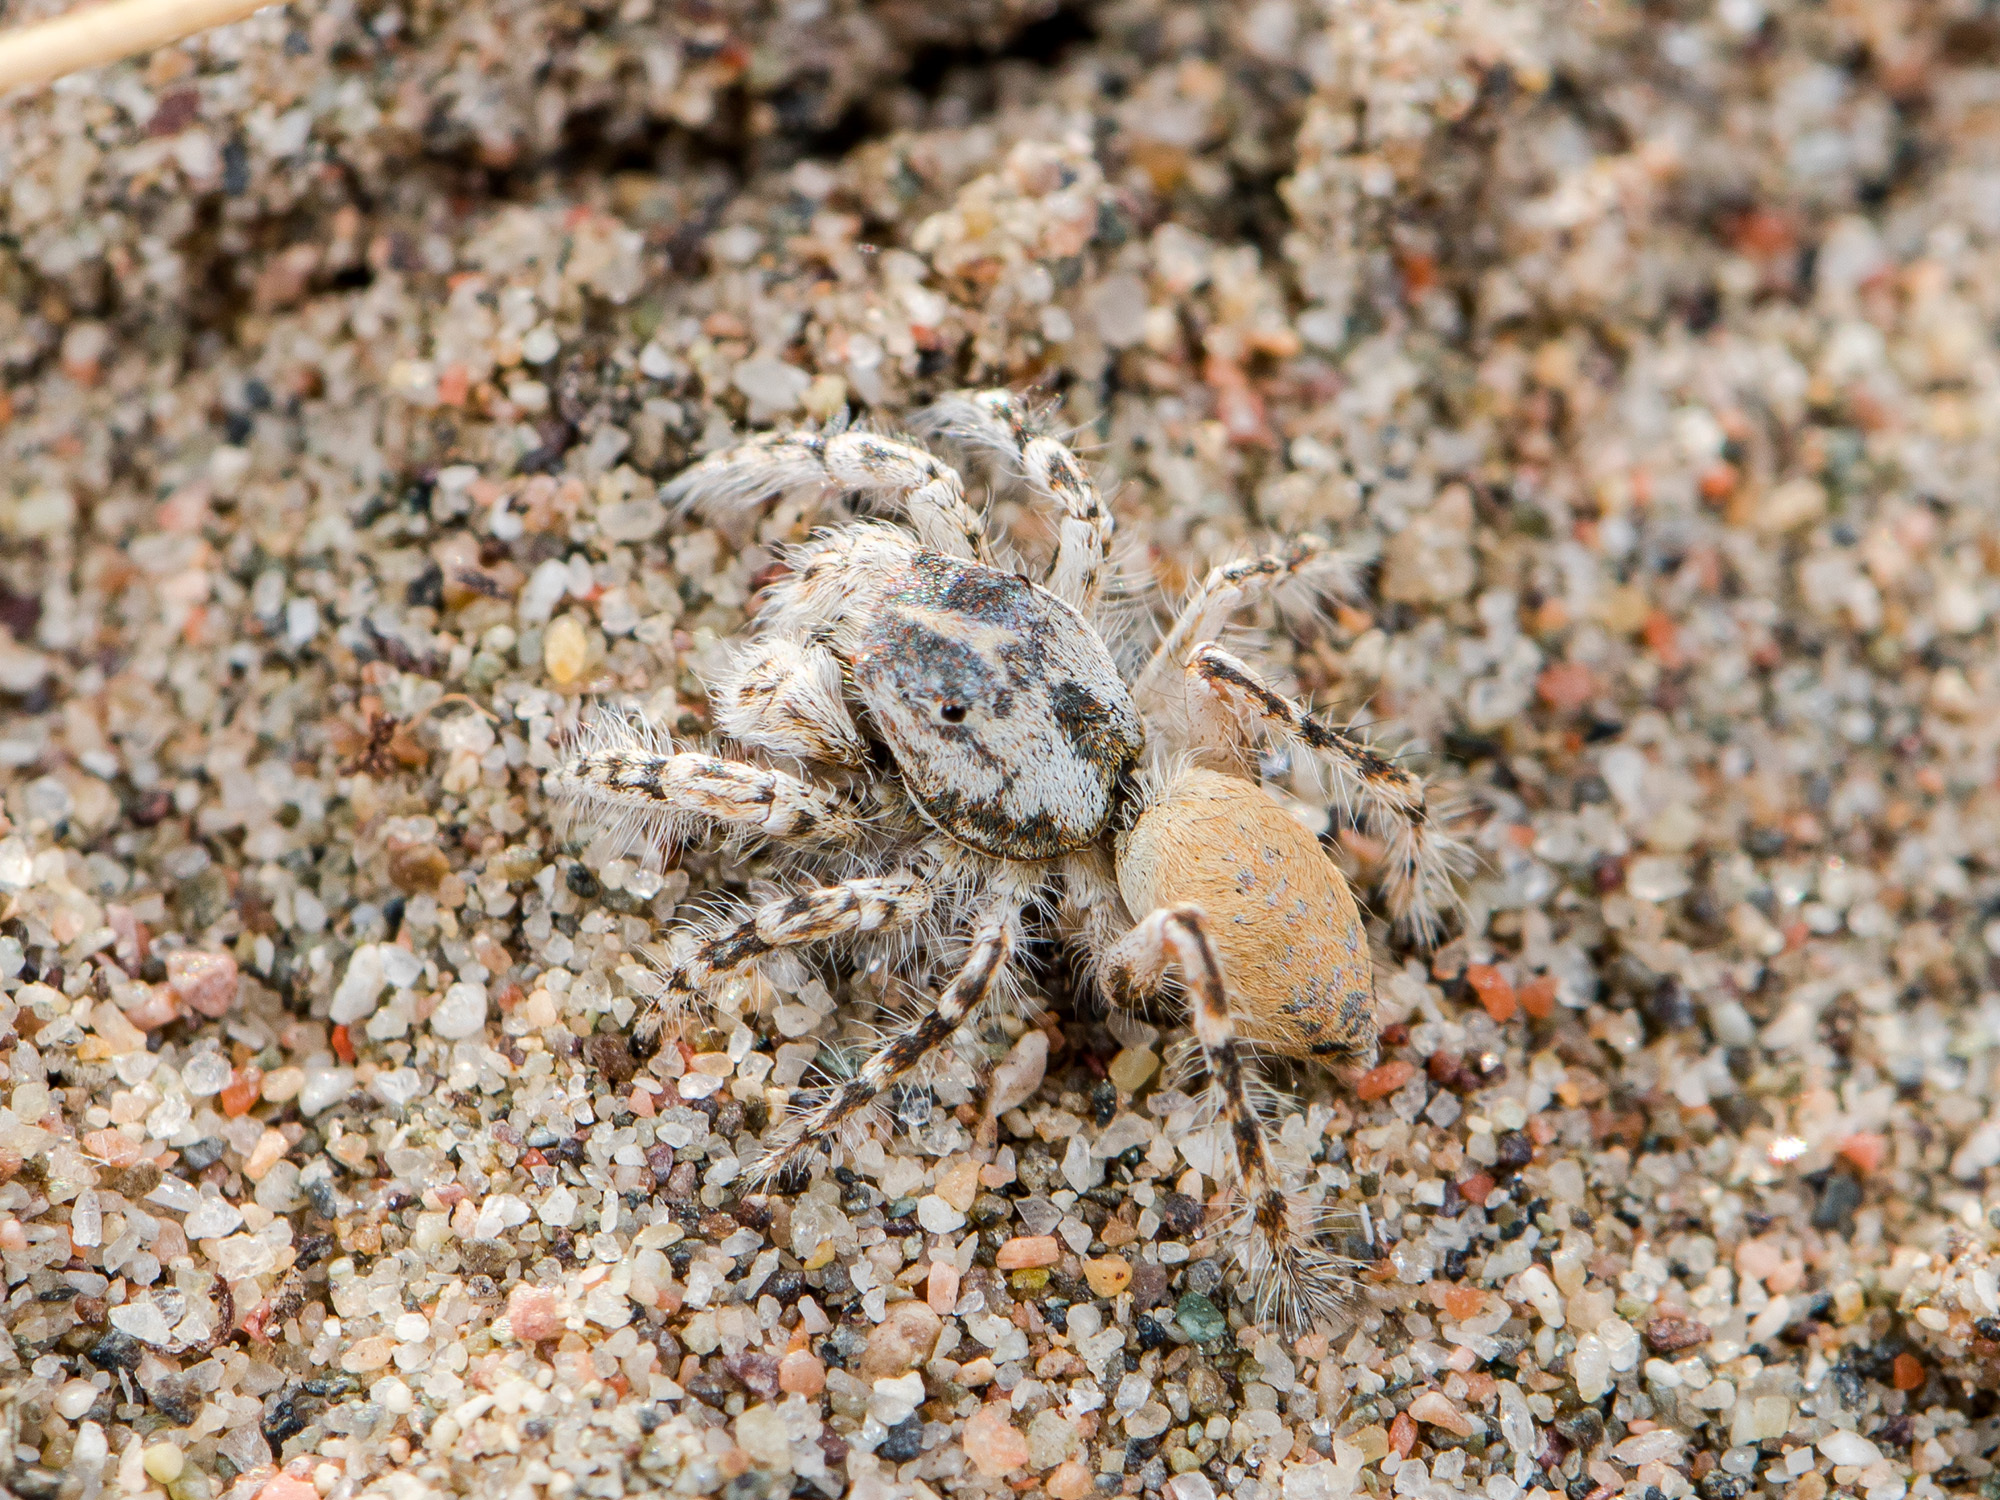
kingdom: Animalia
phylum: Arthropoda
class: Arachnida
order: Araneae
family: Salticidae
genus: Yllenus
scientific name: Yllenus turkestanicus
